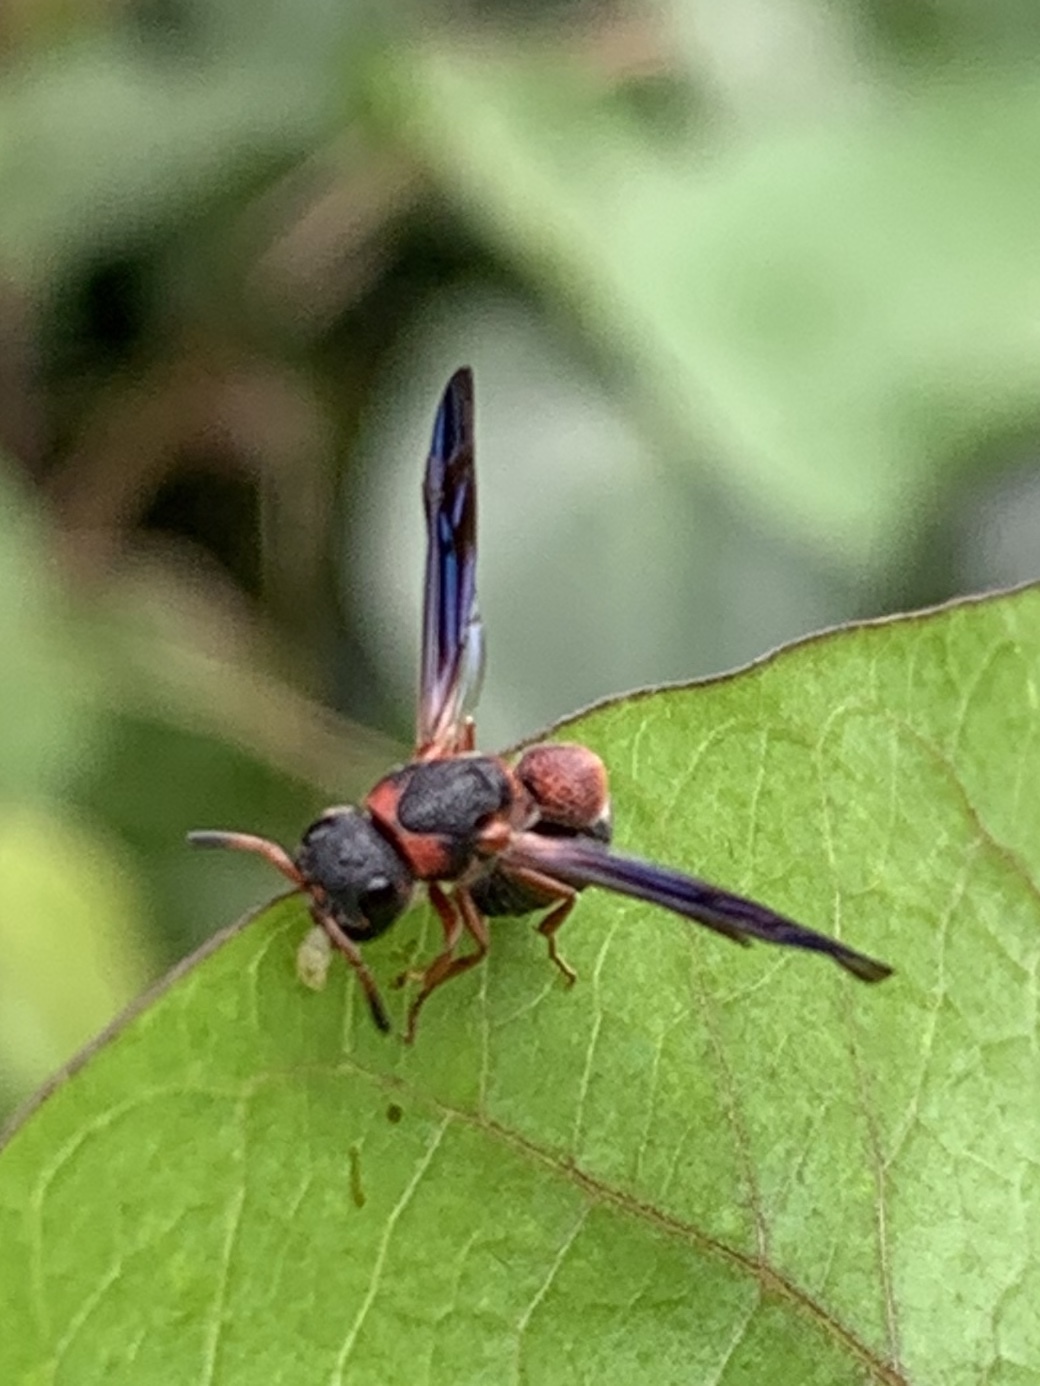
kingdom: Animalia
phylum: Arthropoda
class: Insecta
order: Hymenoptera
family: Eumenidae
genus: Parancistrocerus
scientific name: Parancistrocerus perennis
